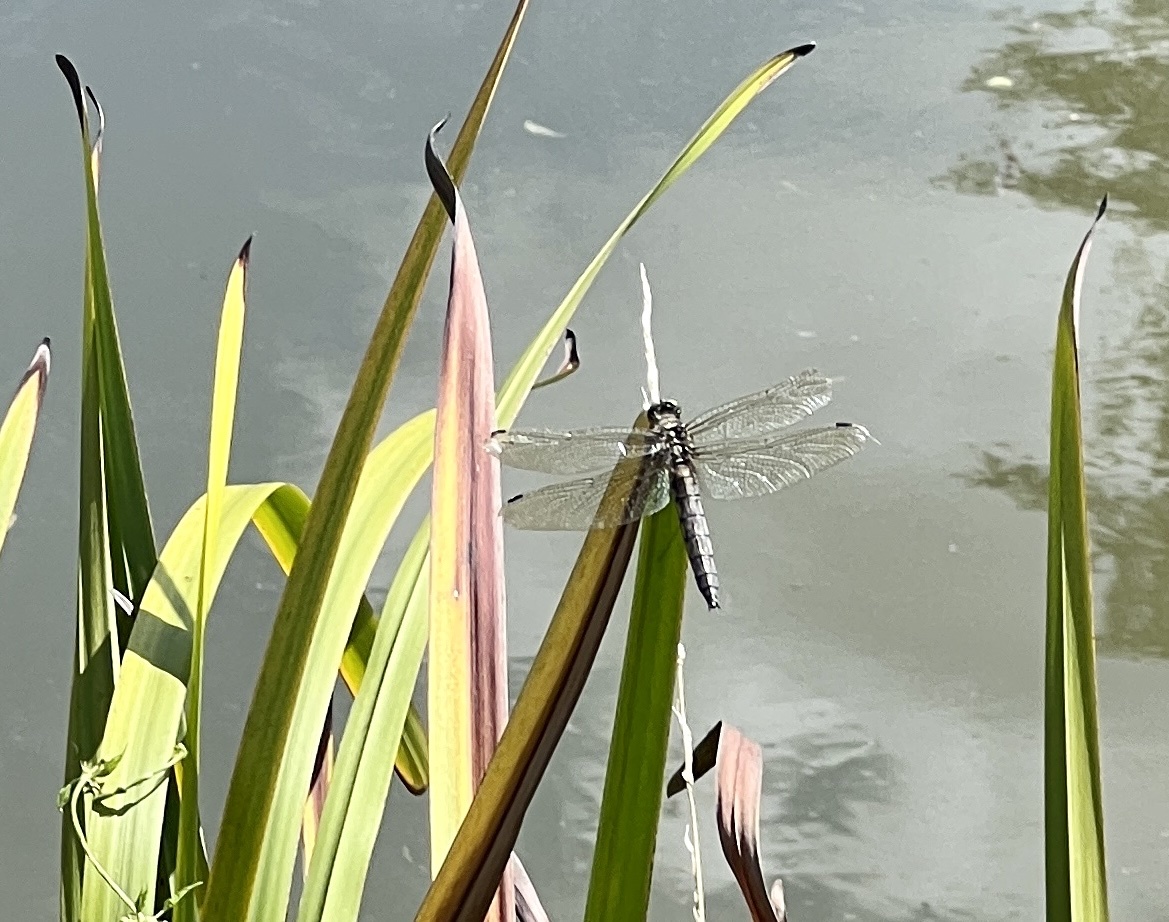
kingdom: Animalia
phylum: Arthropoda
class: Insecta
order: Odonata
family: Libellulidae
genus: Orthetrum
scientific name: Orthetrum cancellatum
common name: Black-tailed skimmer
